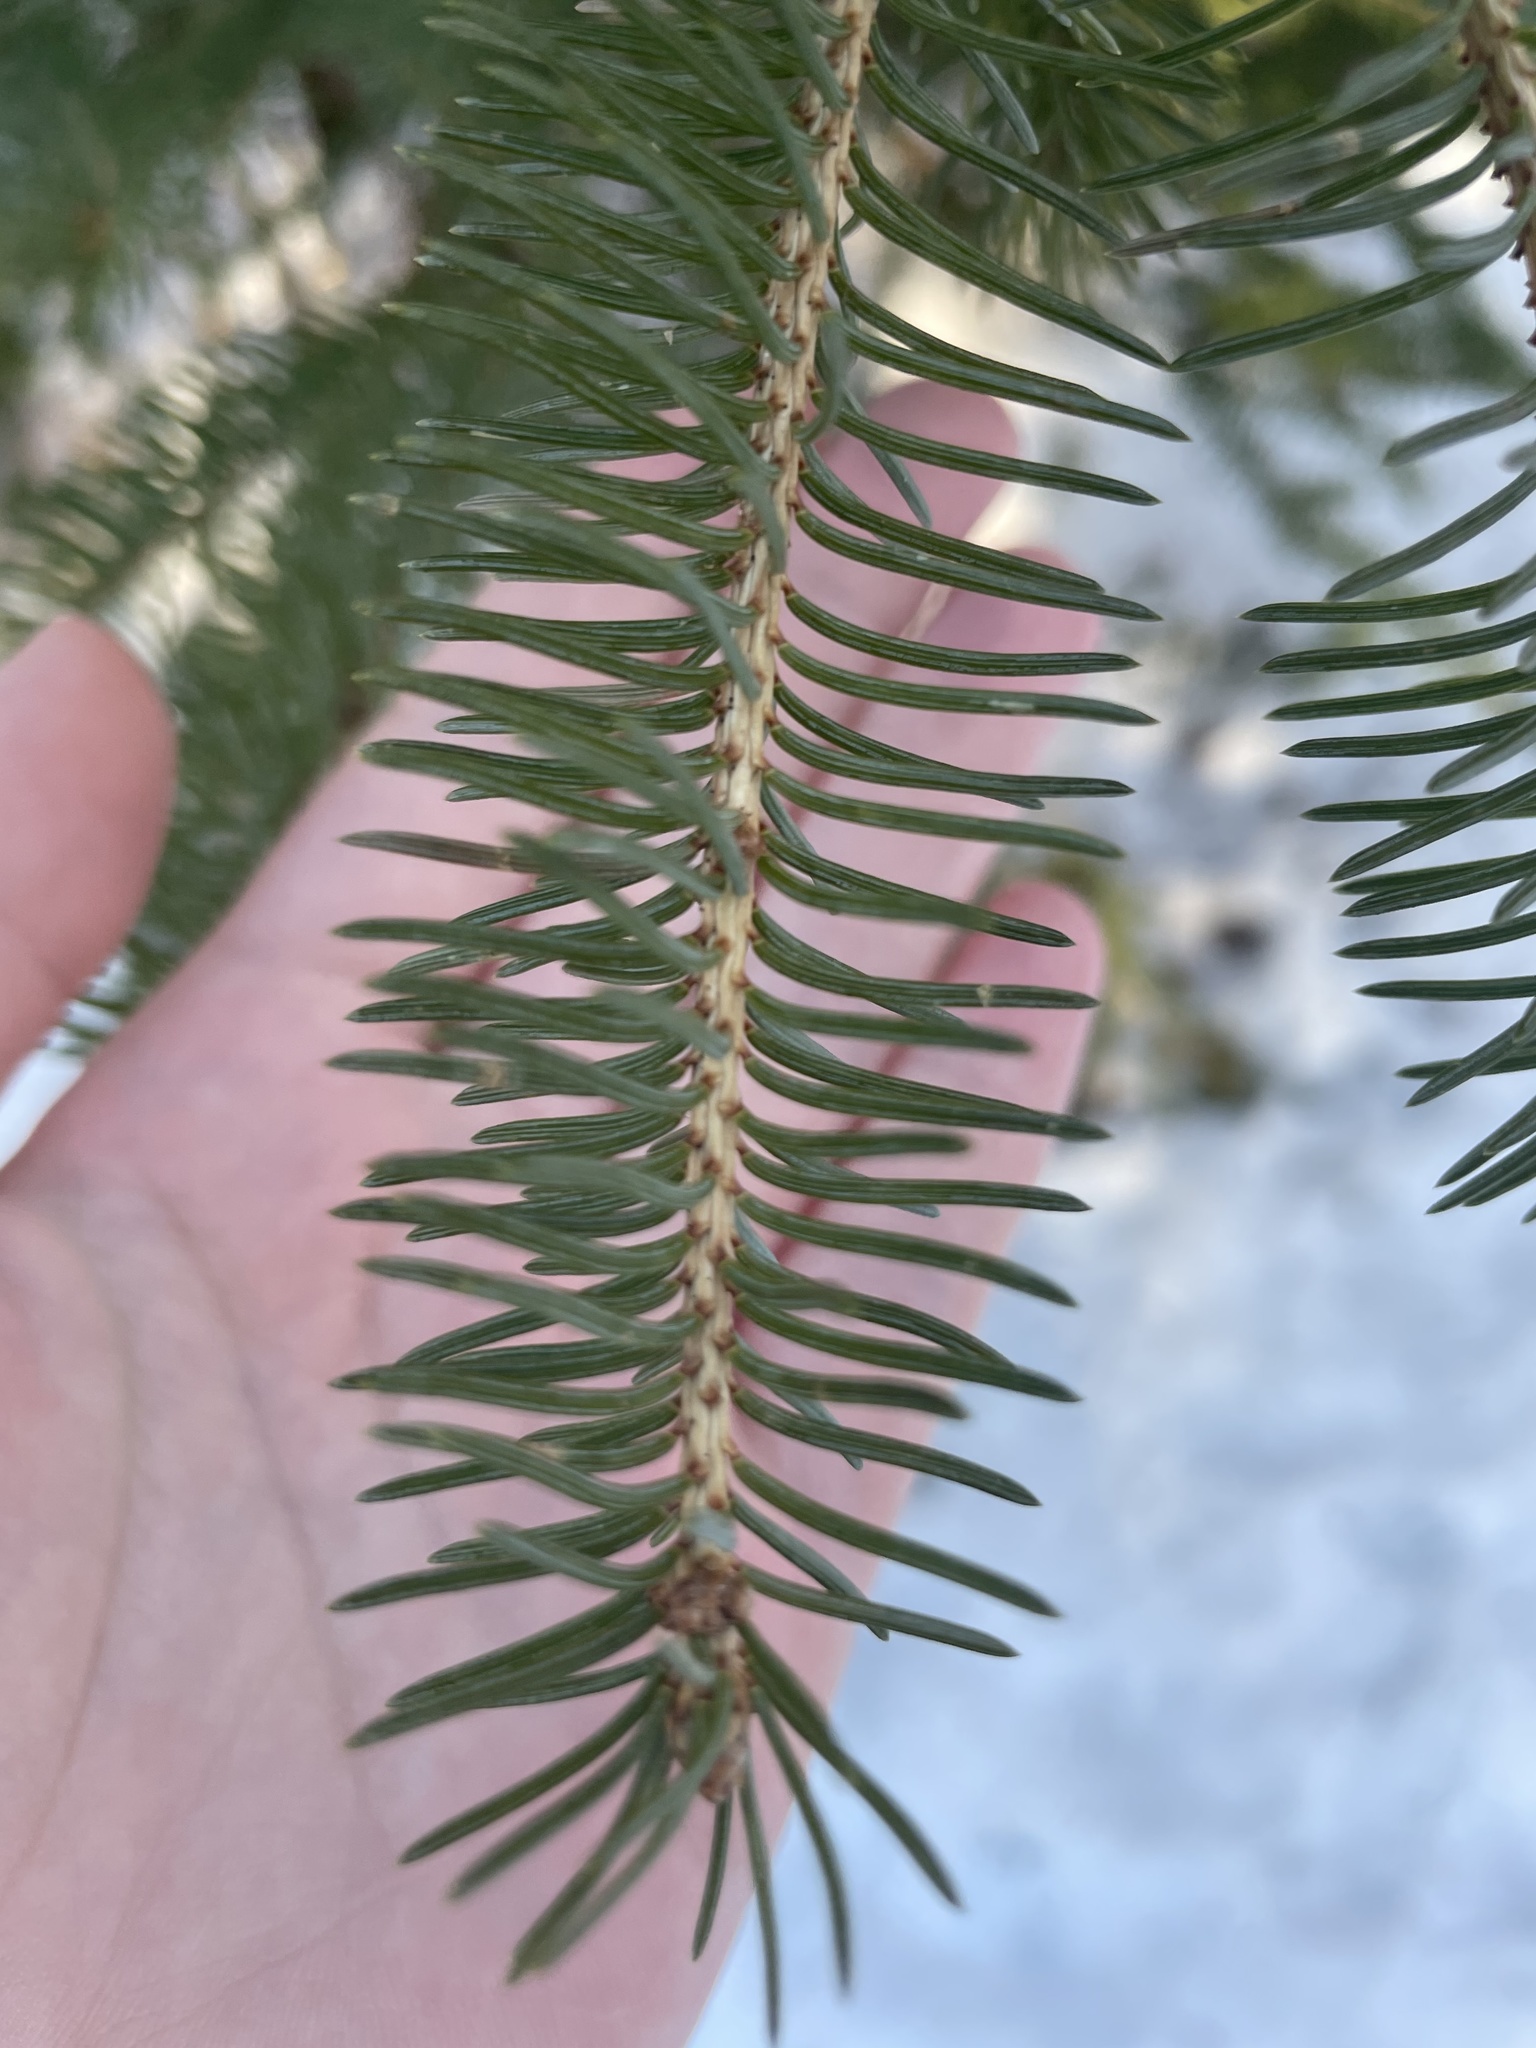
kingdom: Plantae
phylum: Tracheophyta
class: Pinopsida
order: Pinales
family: Pinaceae
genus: Picea
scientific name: Picea glauca
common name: White spruce
